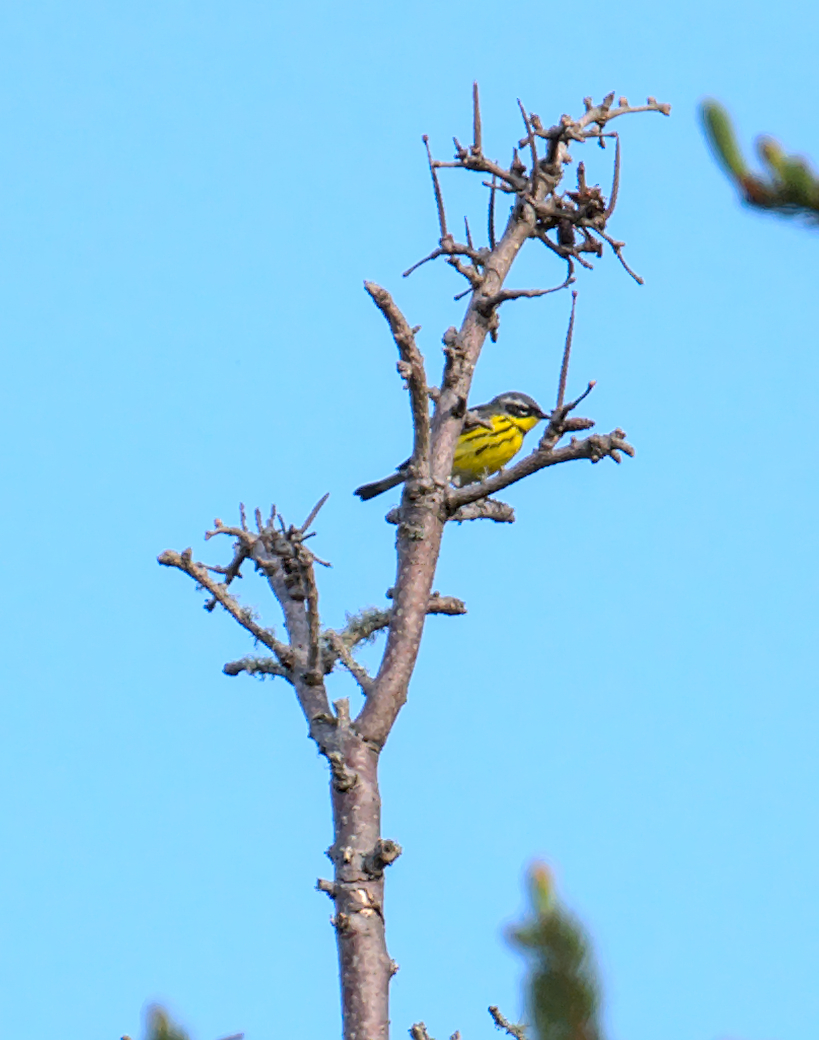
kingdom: Animalia
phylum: Chordata
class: Aves
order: Passeriformes
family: Parulidae
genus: Setophaga
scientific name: Setophaga magnolia
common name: Magnolia warbler
